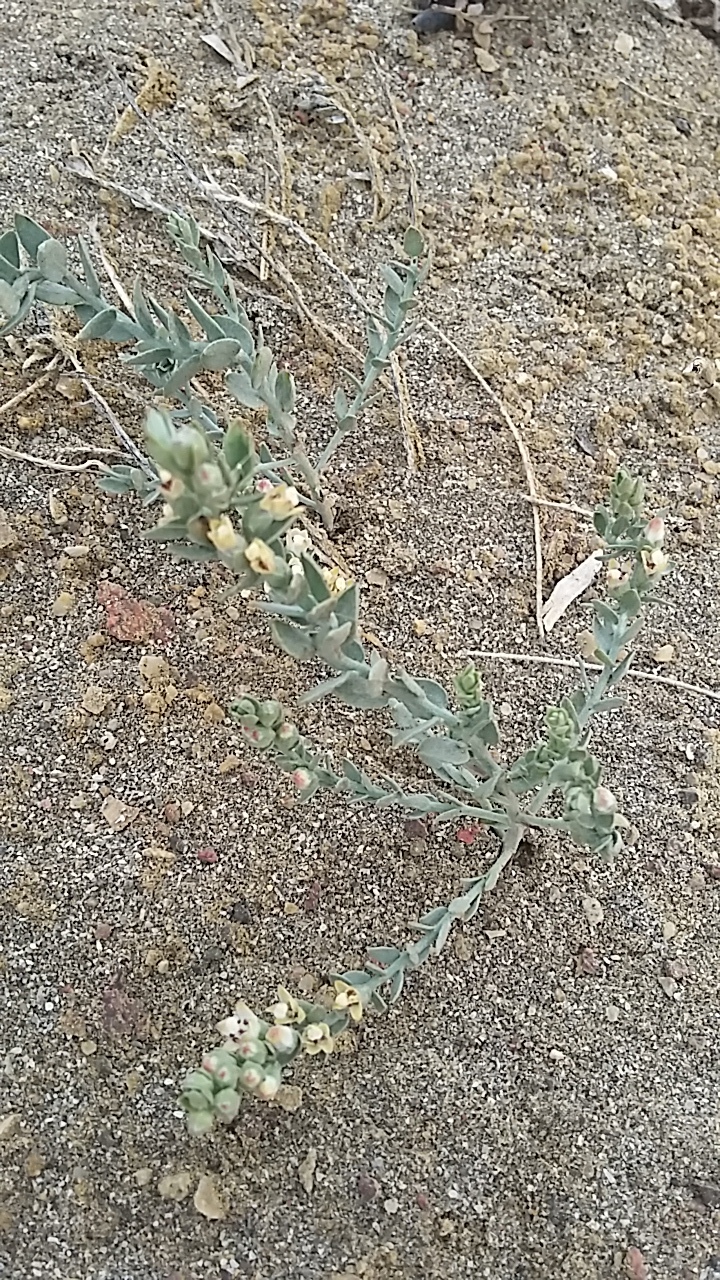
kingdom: Plantae
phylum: Tracheophyta
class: Magnoliopsida
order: Solanales
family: Convolvulaceae
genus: Cressa
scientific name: Cressa truxillensis
